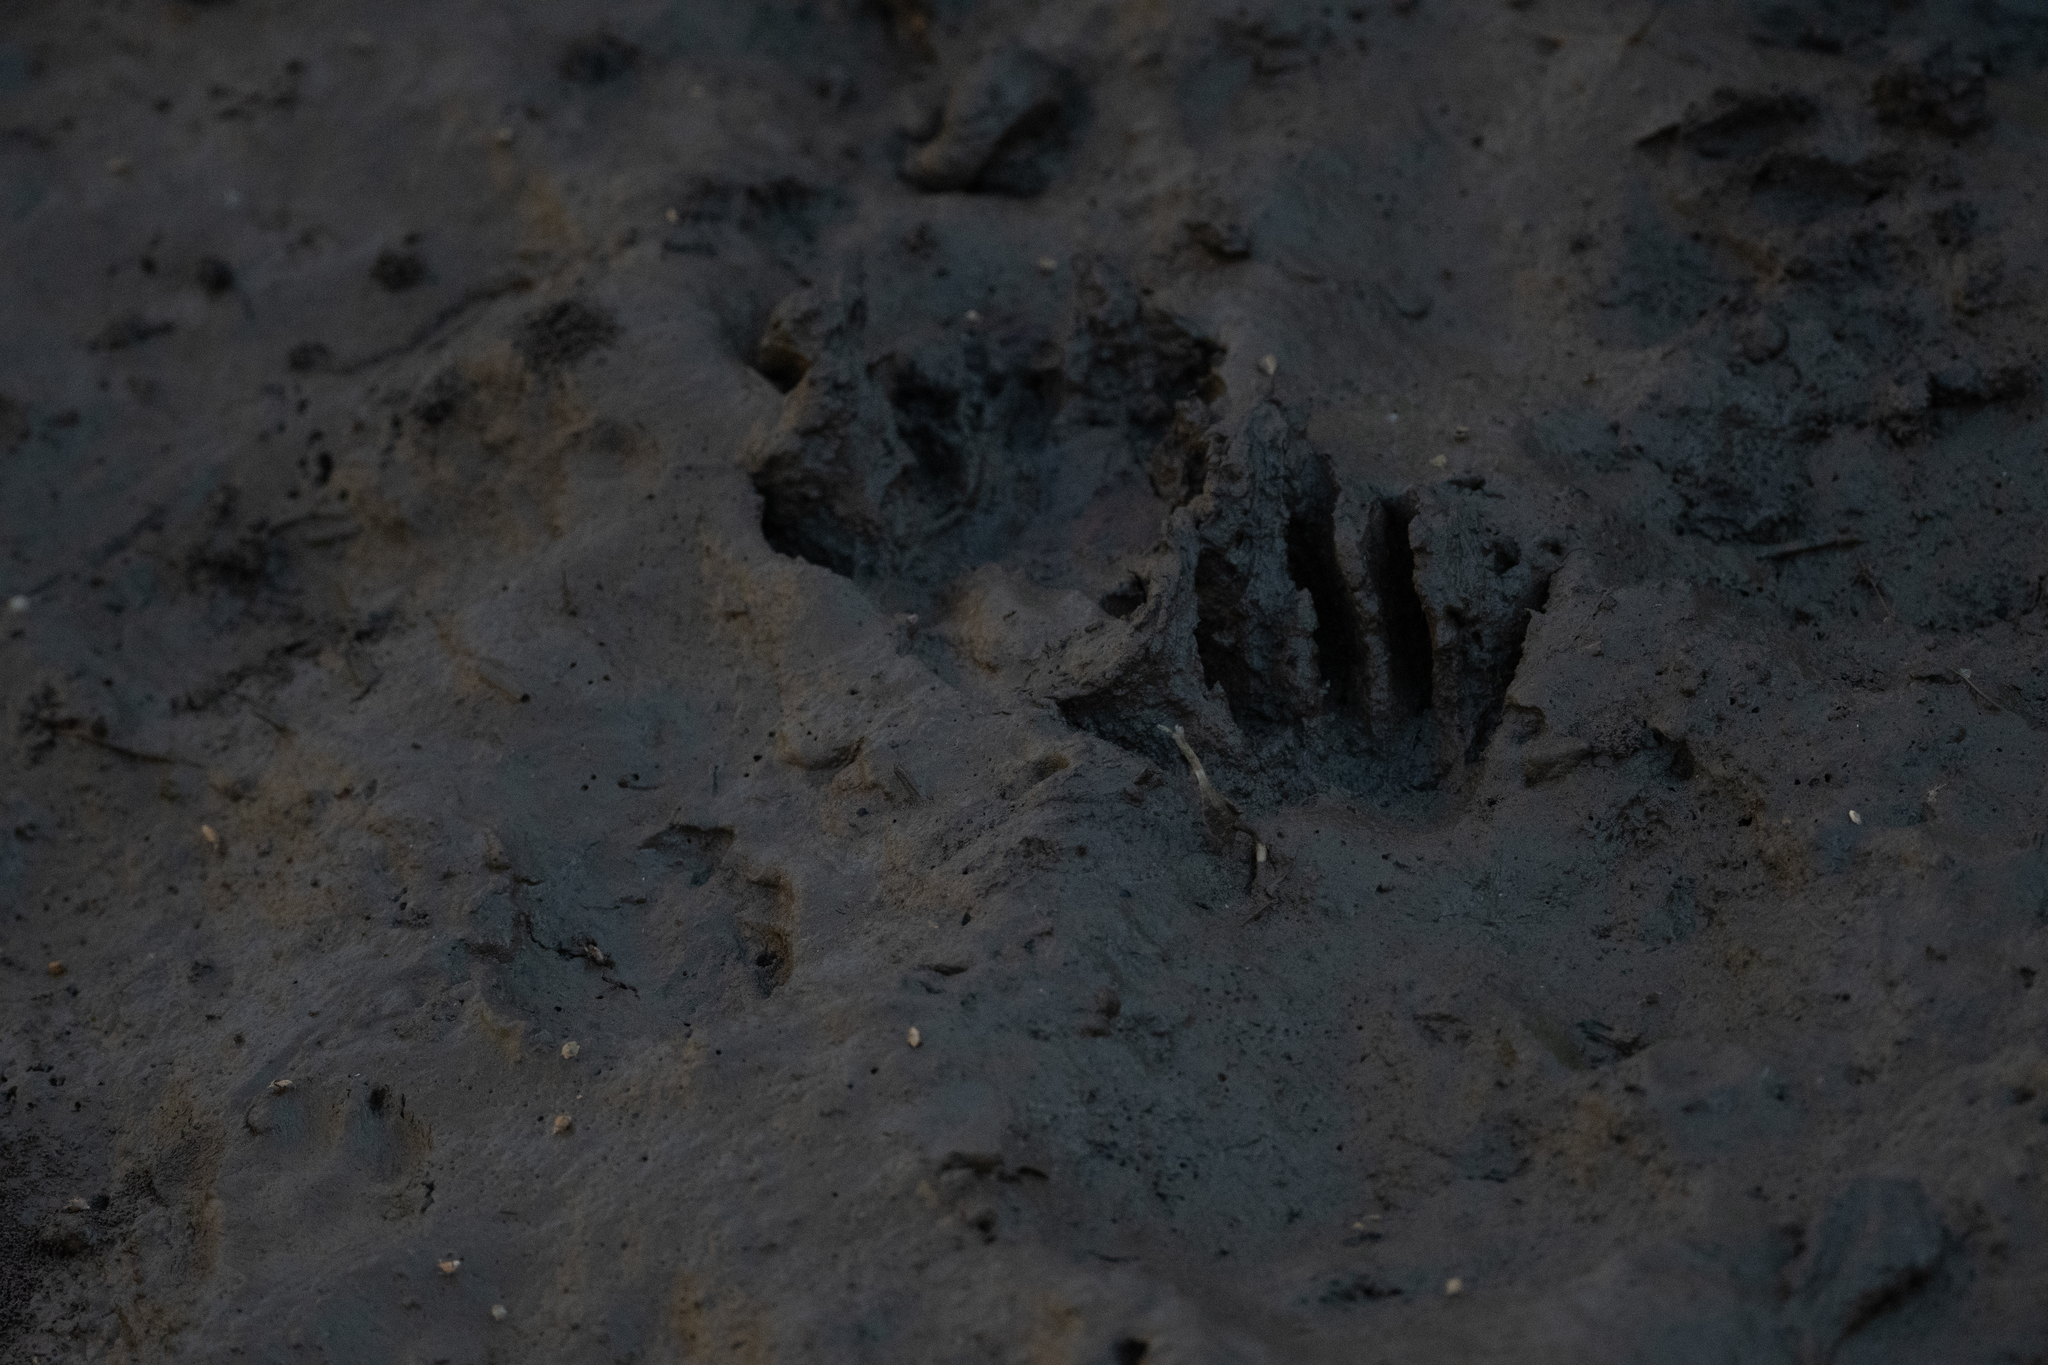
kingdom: Animalia
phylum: Chordata
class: Mammalia
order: Carnivora
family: Procyonidae
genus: Procyon
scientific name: Procyon lotor
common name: Raccoon
